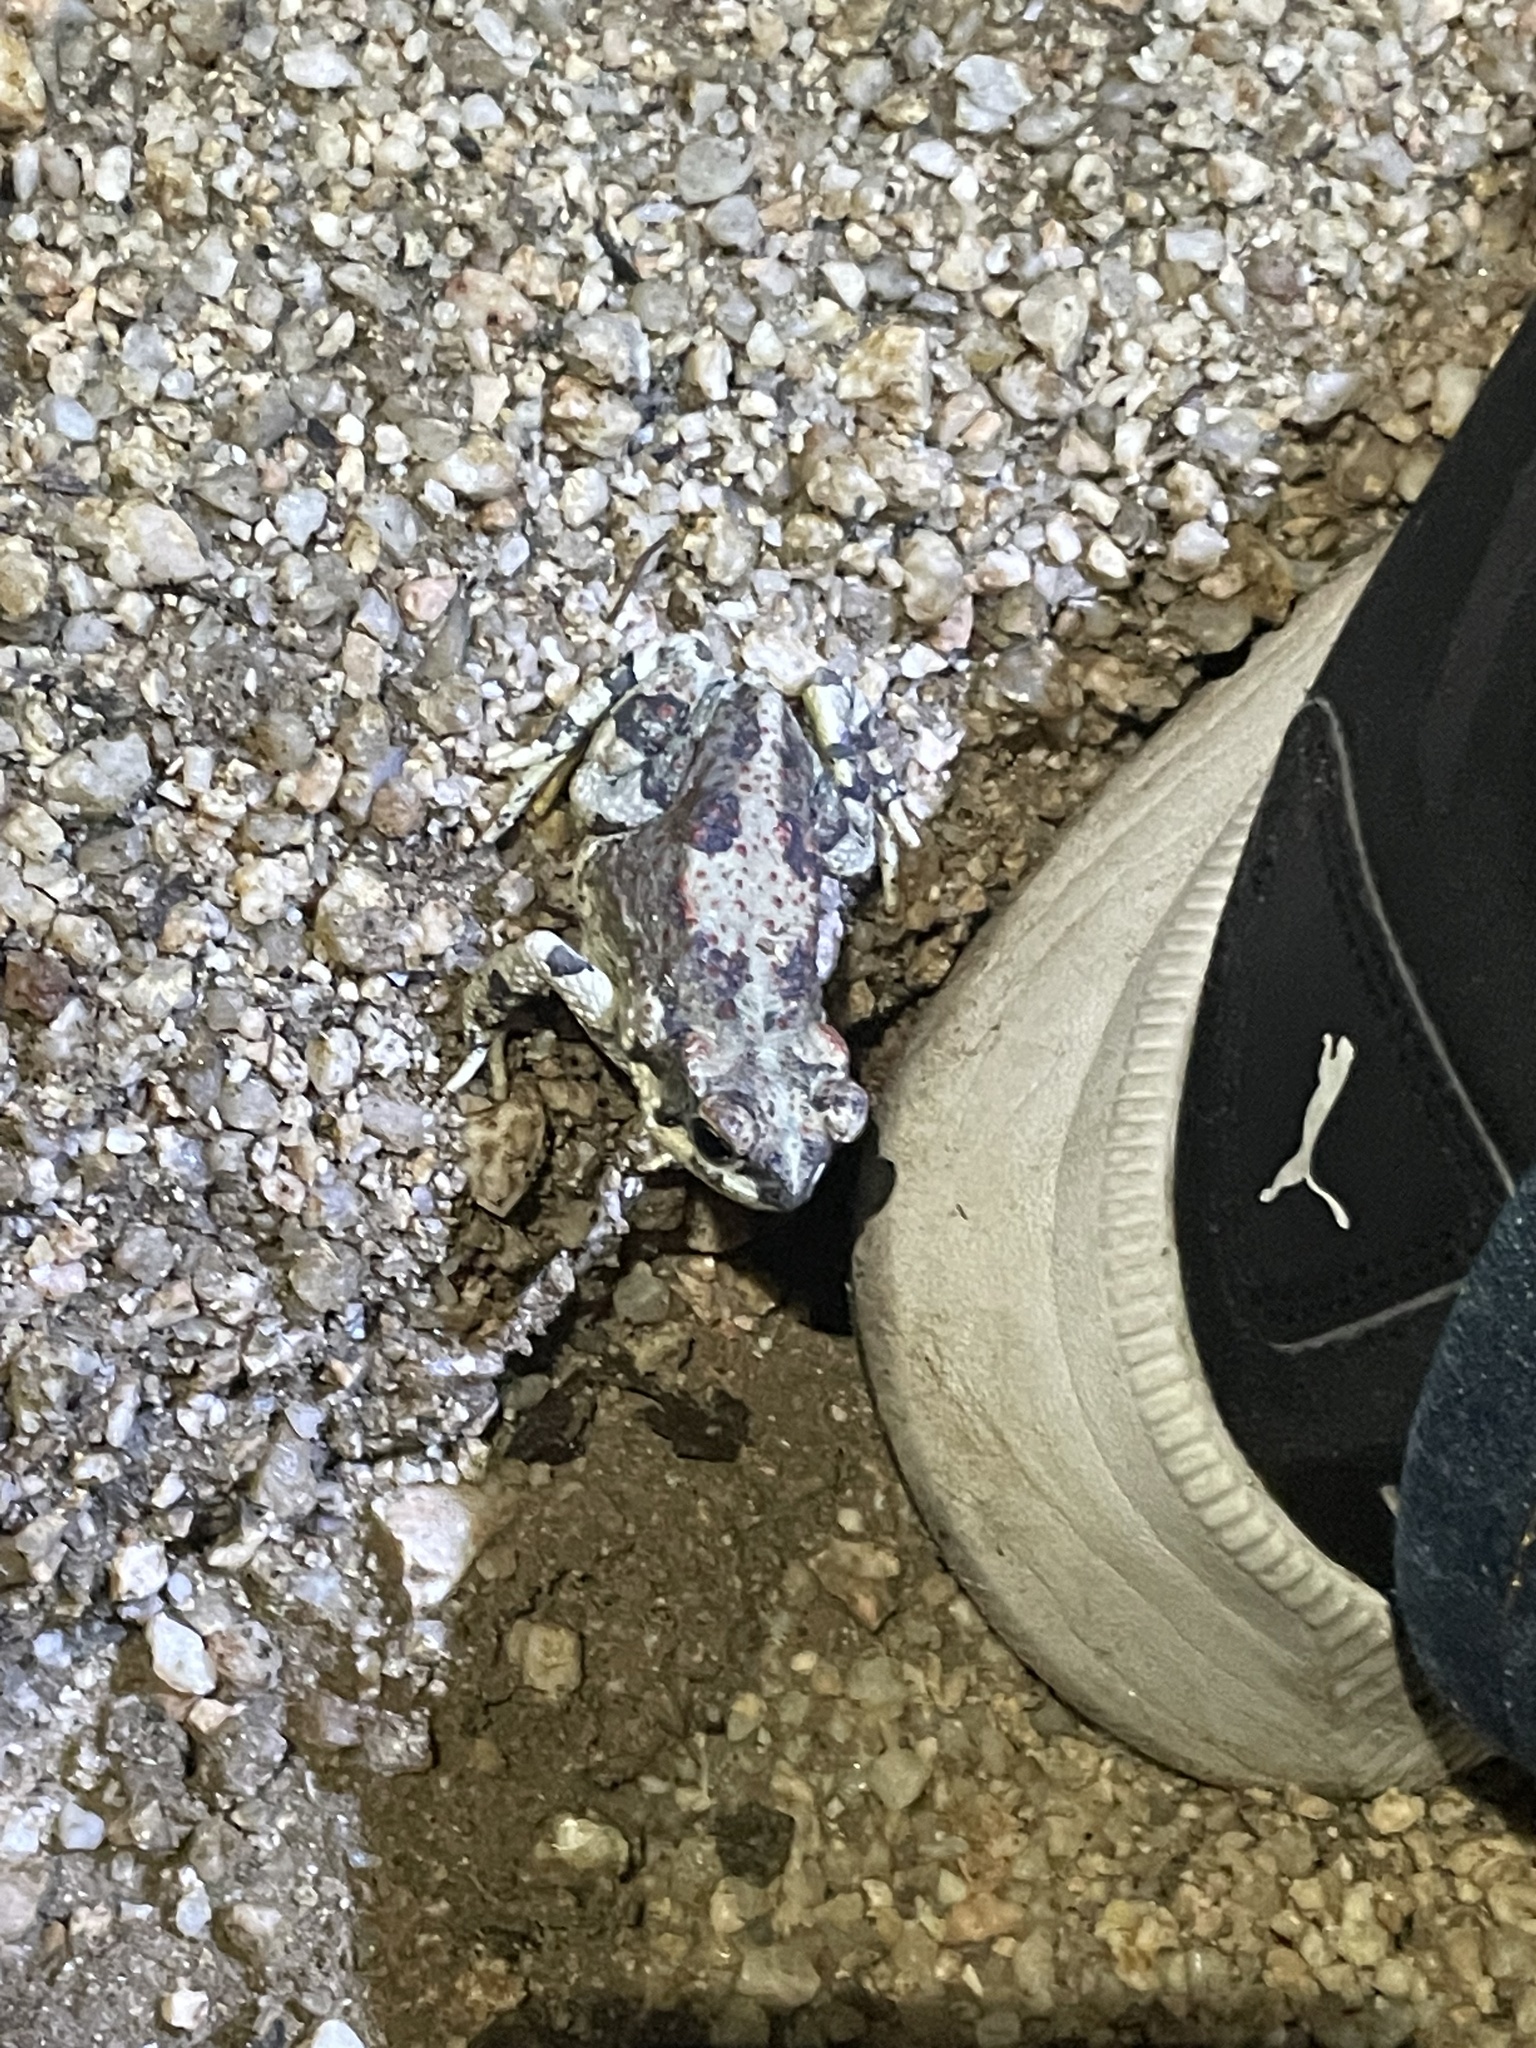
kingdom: Animalia
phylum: Chordata
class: Amphibia
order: Anura
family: Bufonidae
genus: Anaxyrus
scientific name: Anaxyrus punctatus
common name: Red-spotted toad
